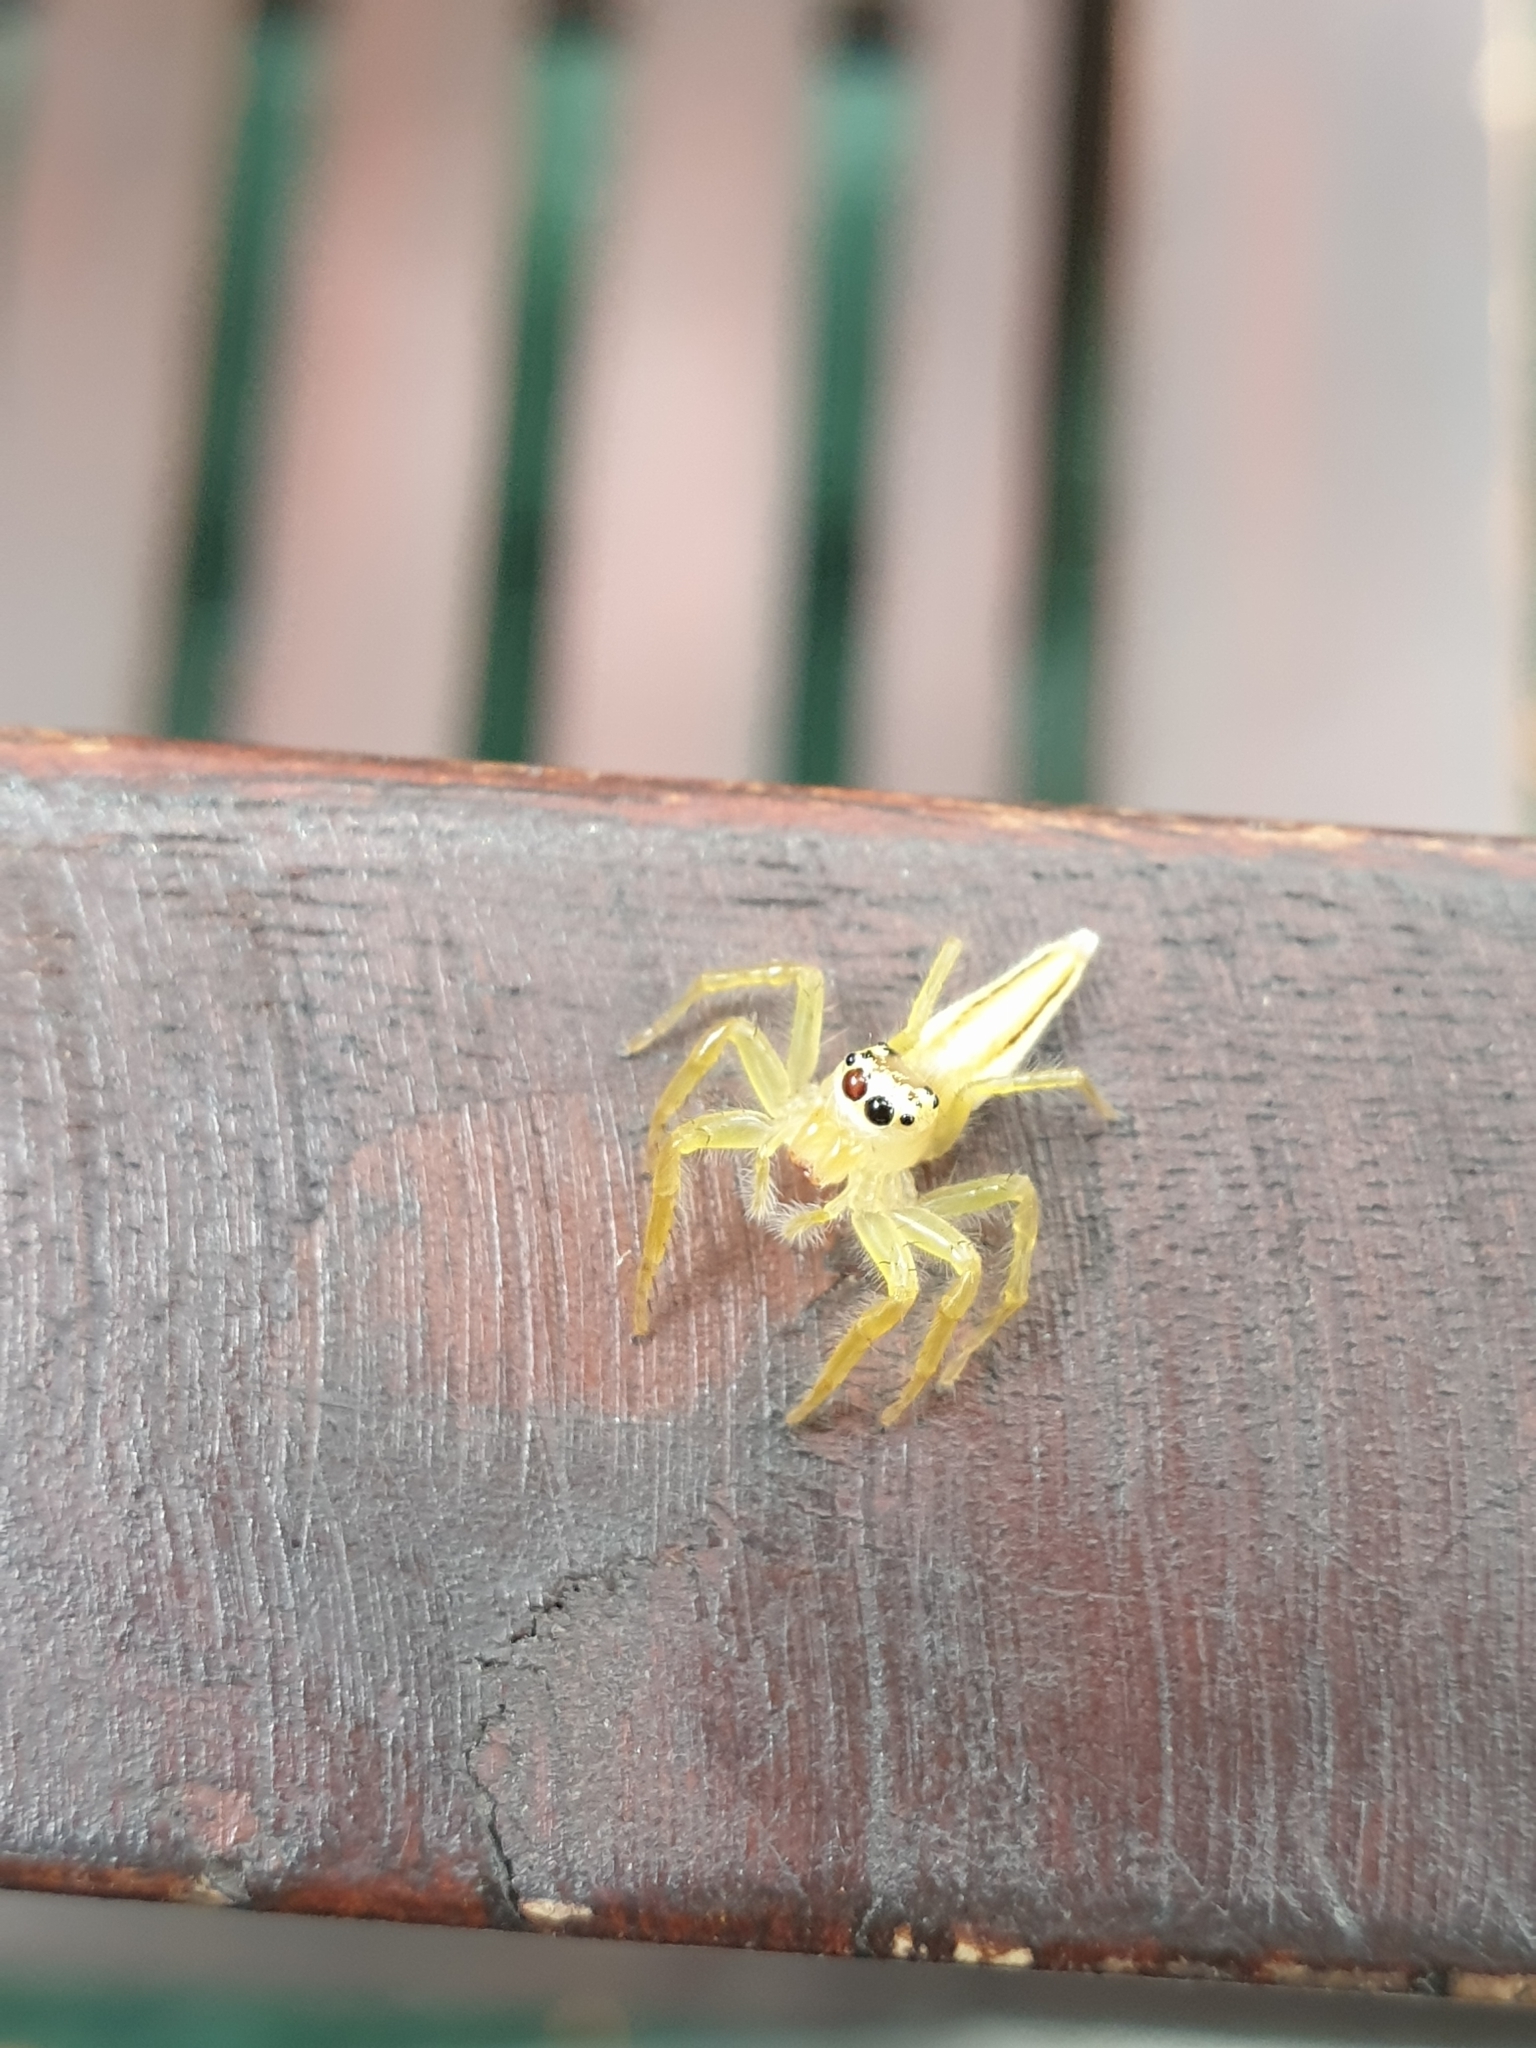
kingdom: Animalia
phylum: Arthropoda
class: Arachnida
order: Araneae
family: Salticidae
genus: Telamonia
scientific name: Telamonia dimidiata
